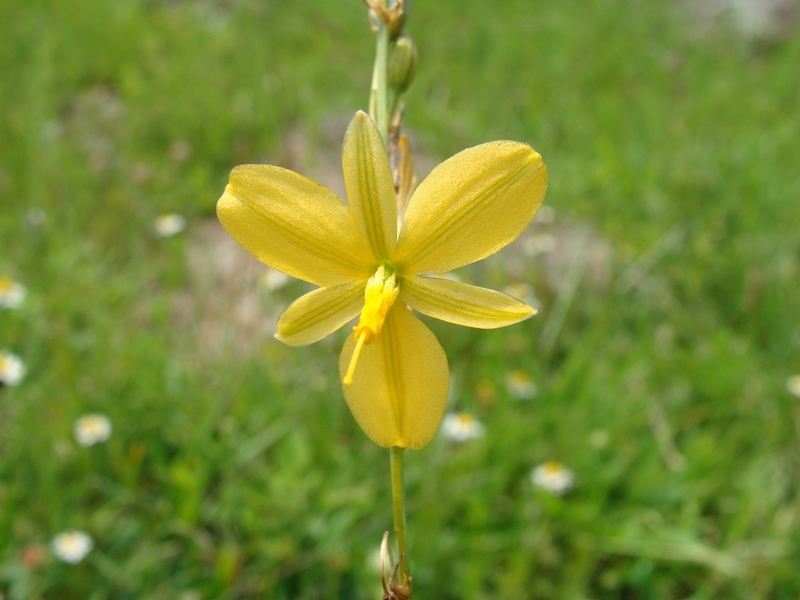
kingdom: Plantae
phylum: Tracheophyta
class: Liliopsida
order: Asparagales
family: Asparagaceae
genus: Echeandia
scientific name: Echeandia reflexa
